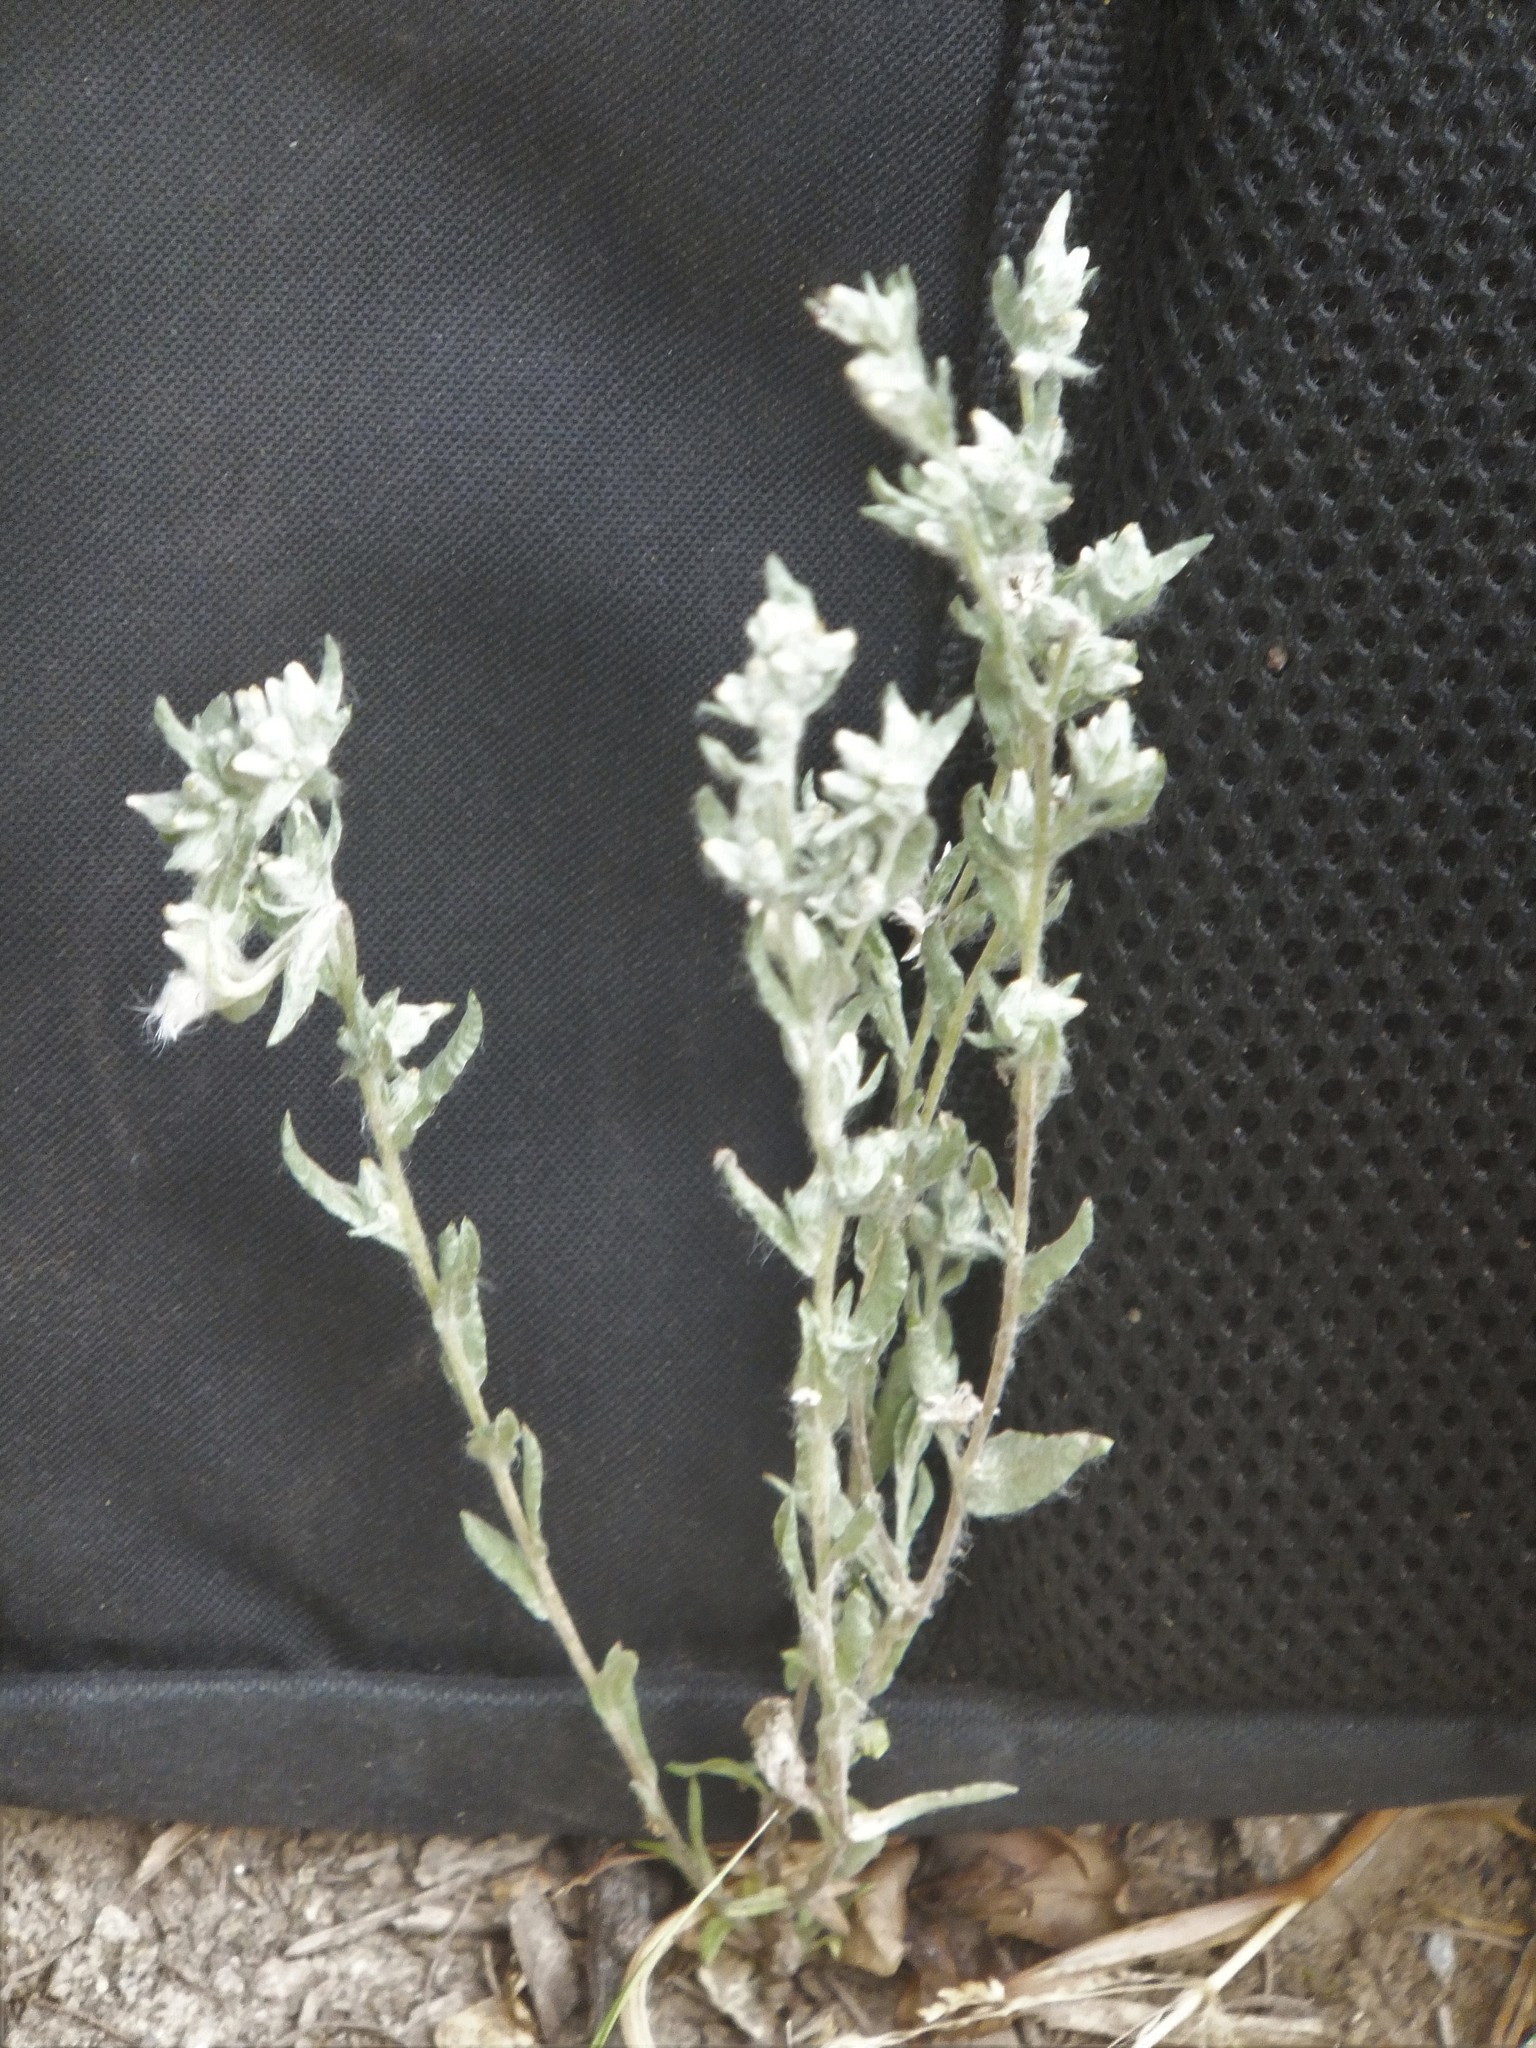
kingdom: Plantae
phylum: Tracheophyta
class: Magnoliopsida
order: Asterales
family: Asteraceae
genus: Filago
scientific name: Filago arvensis
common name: Field cudweed
